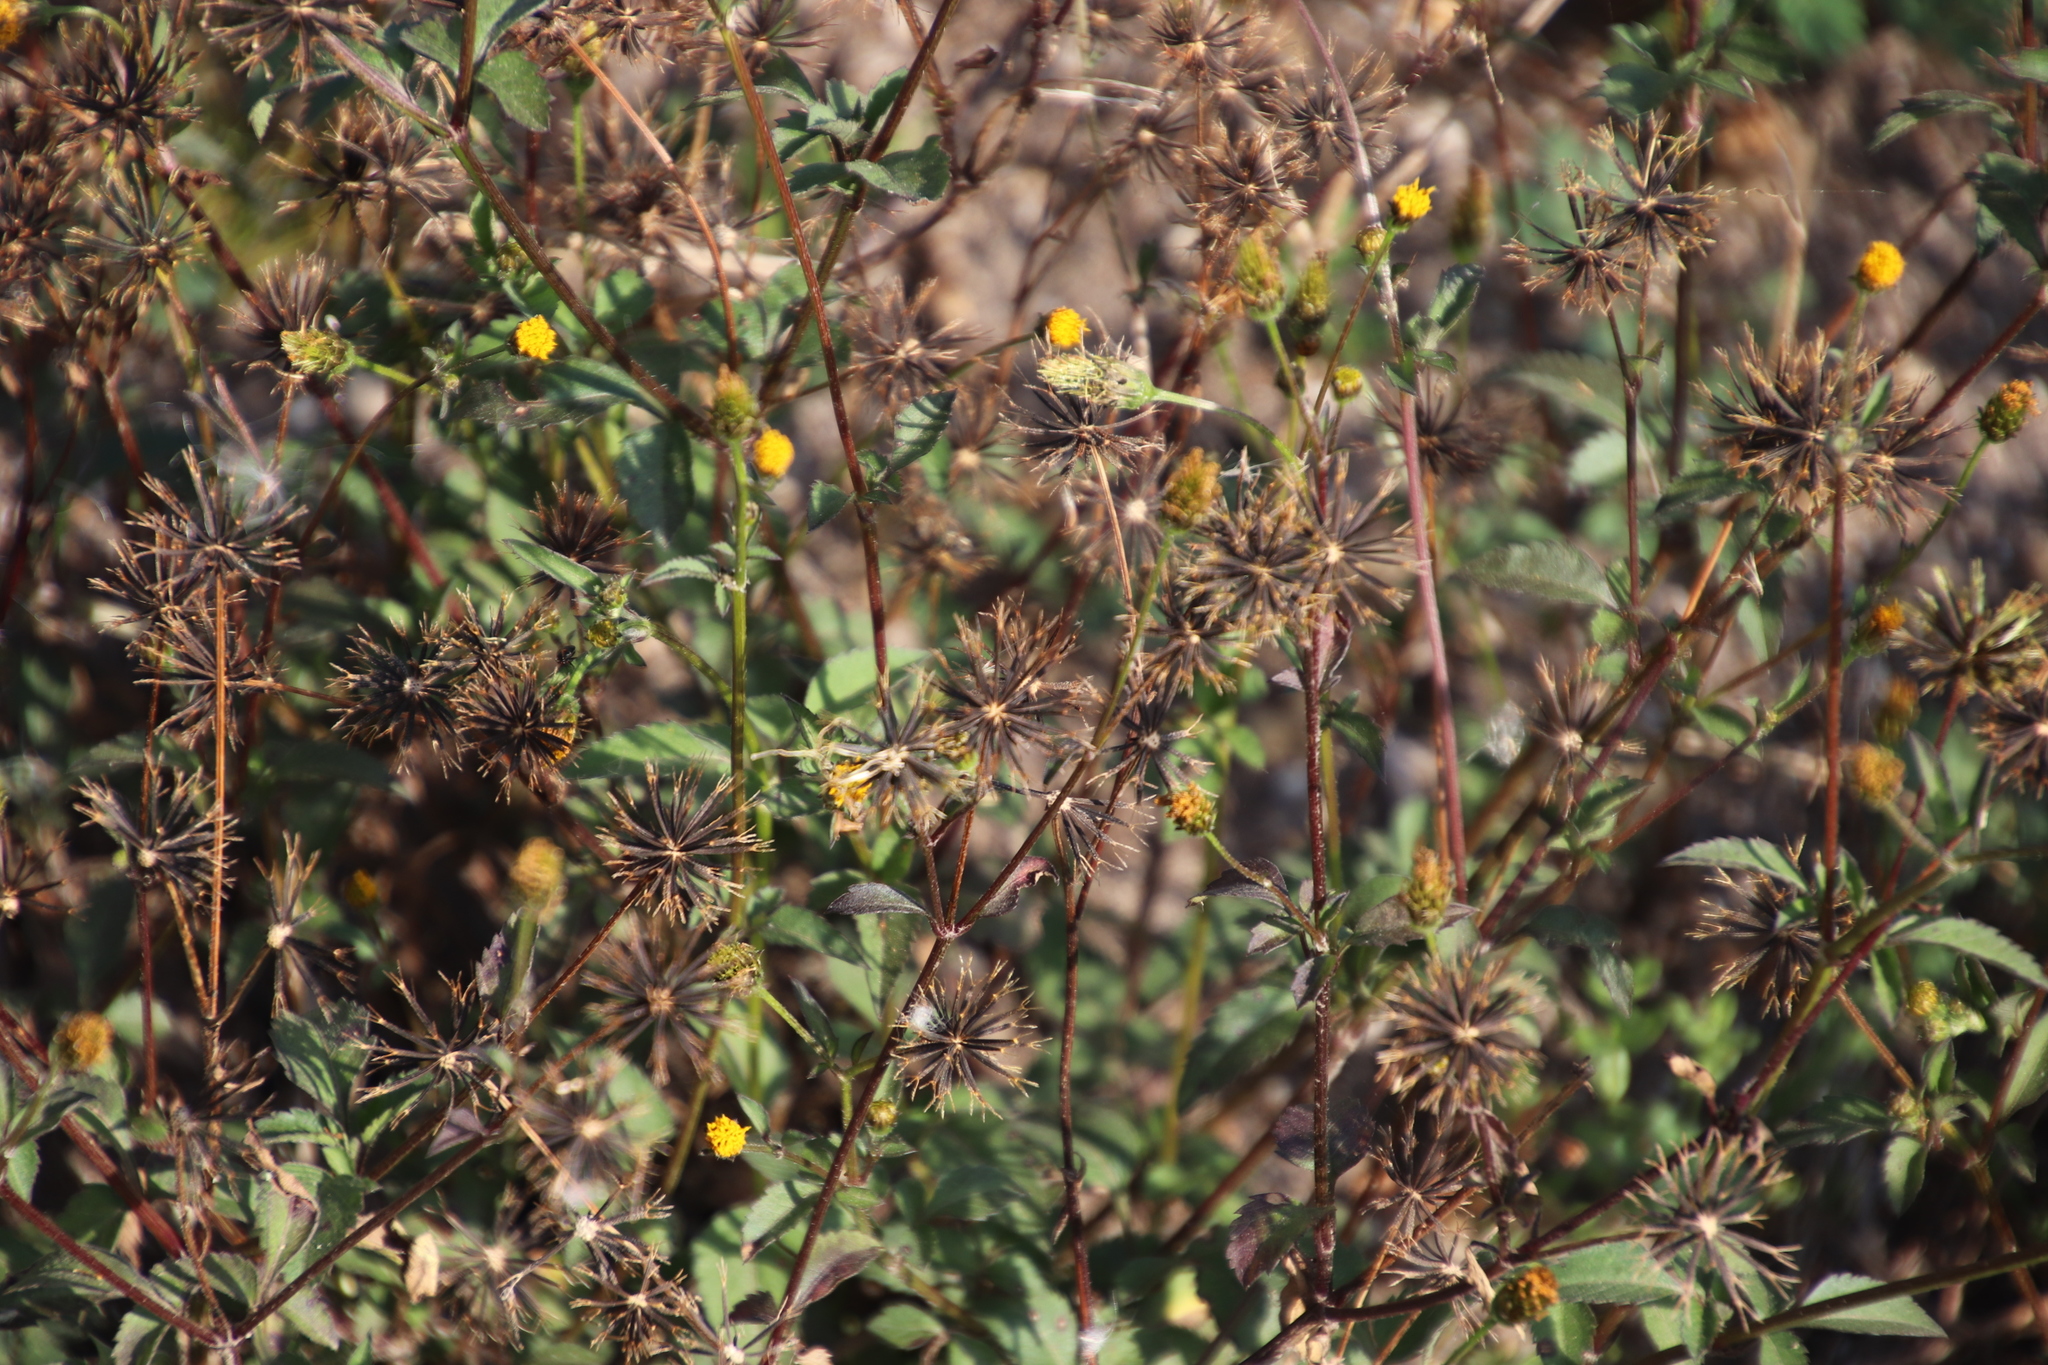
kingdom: Plantae
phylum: Tracheophyta
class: Magnoliopsida
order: Asterales
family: Asteraceae
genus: Bidens
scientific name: Bidens pilosa
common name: Black-jack
